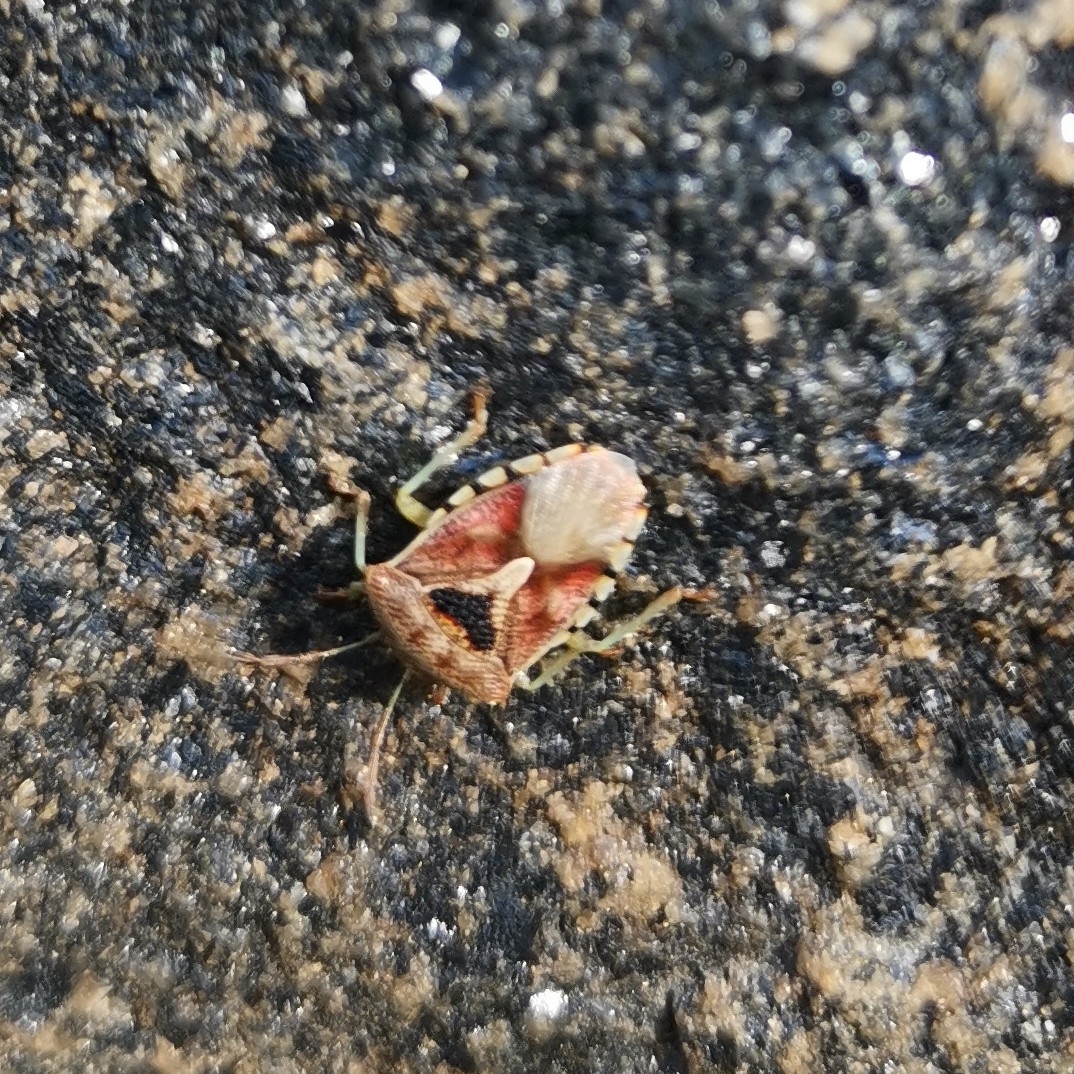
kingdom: Animalia
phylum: Arthropoda
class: Insecta
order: Hemiptera
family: Acanthosomatidae
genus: Elasmucha
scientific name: Elasmucha grisea
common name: Parent bug
